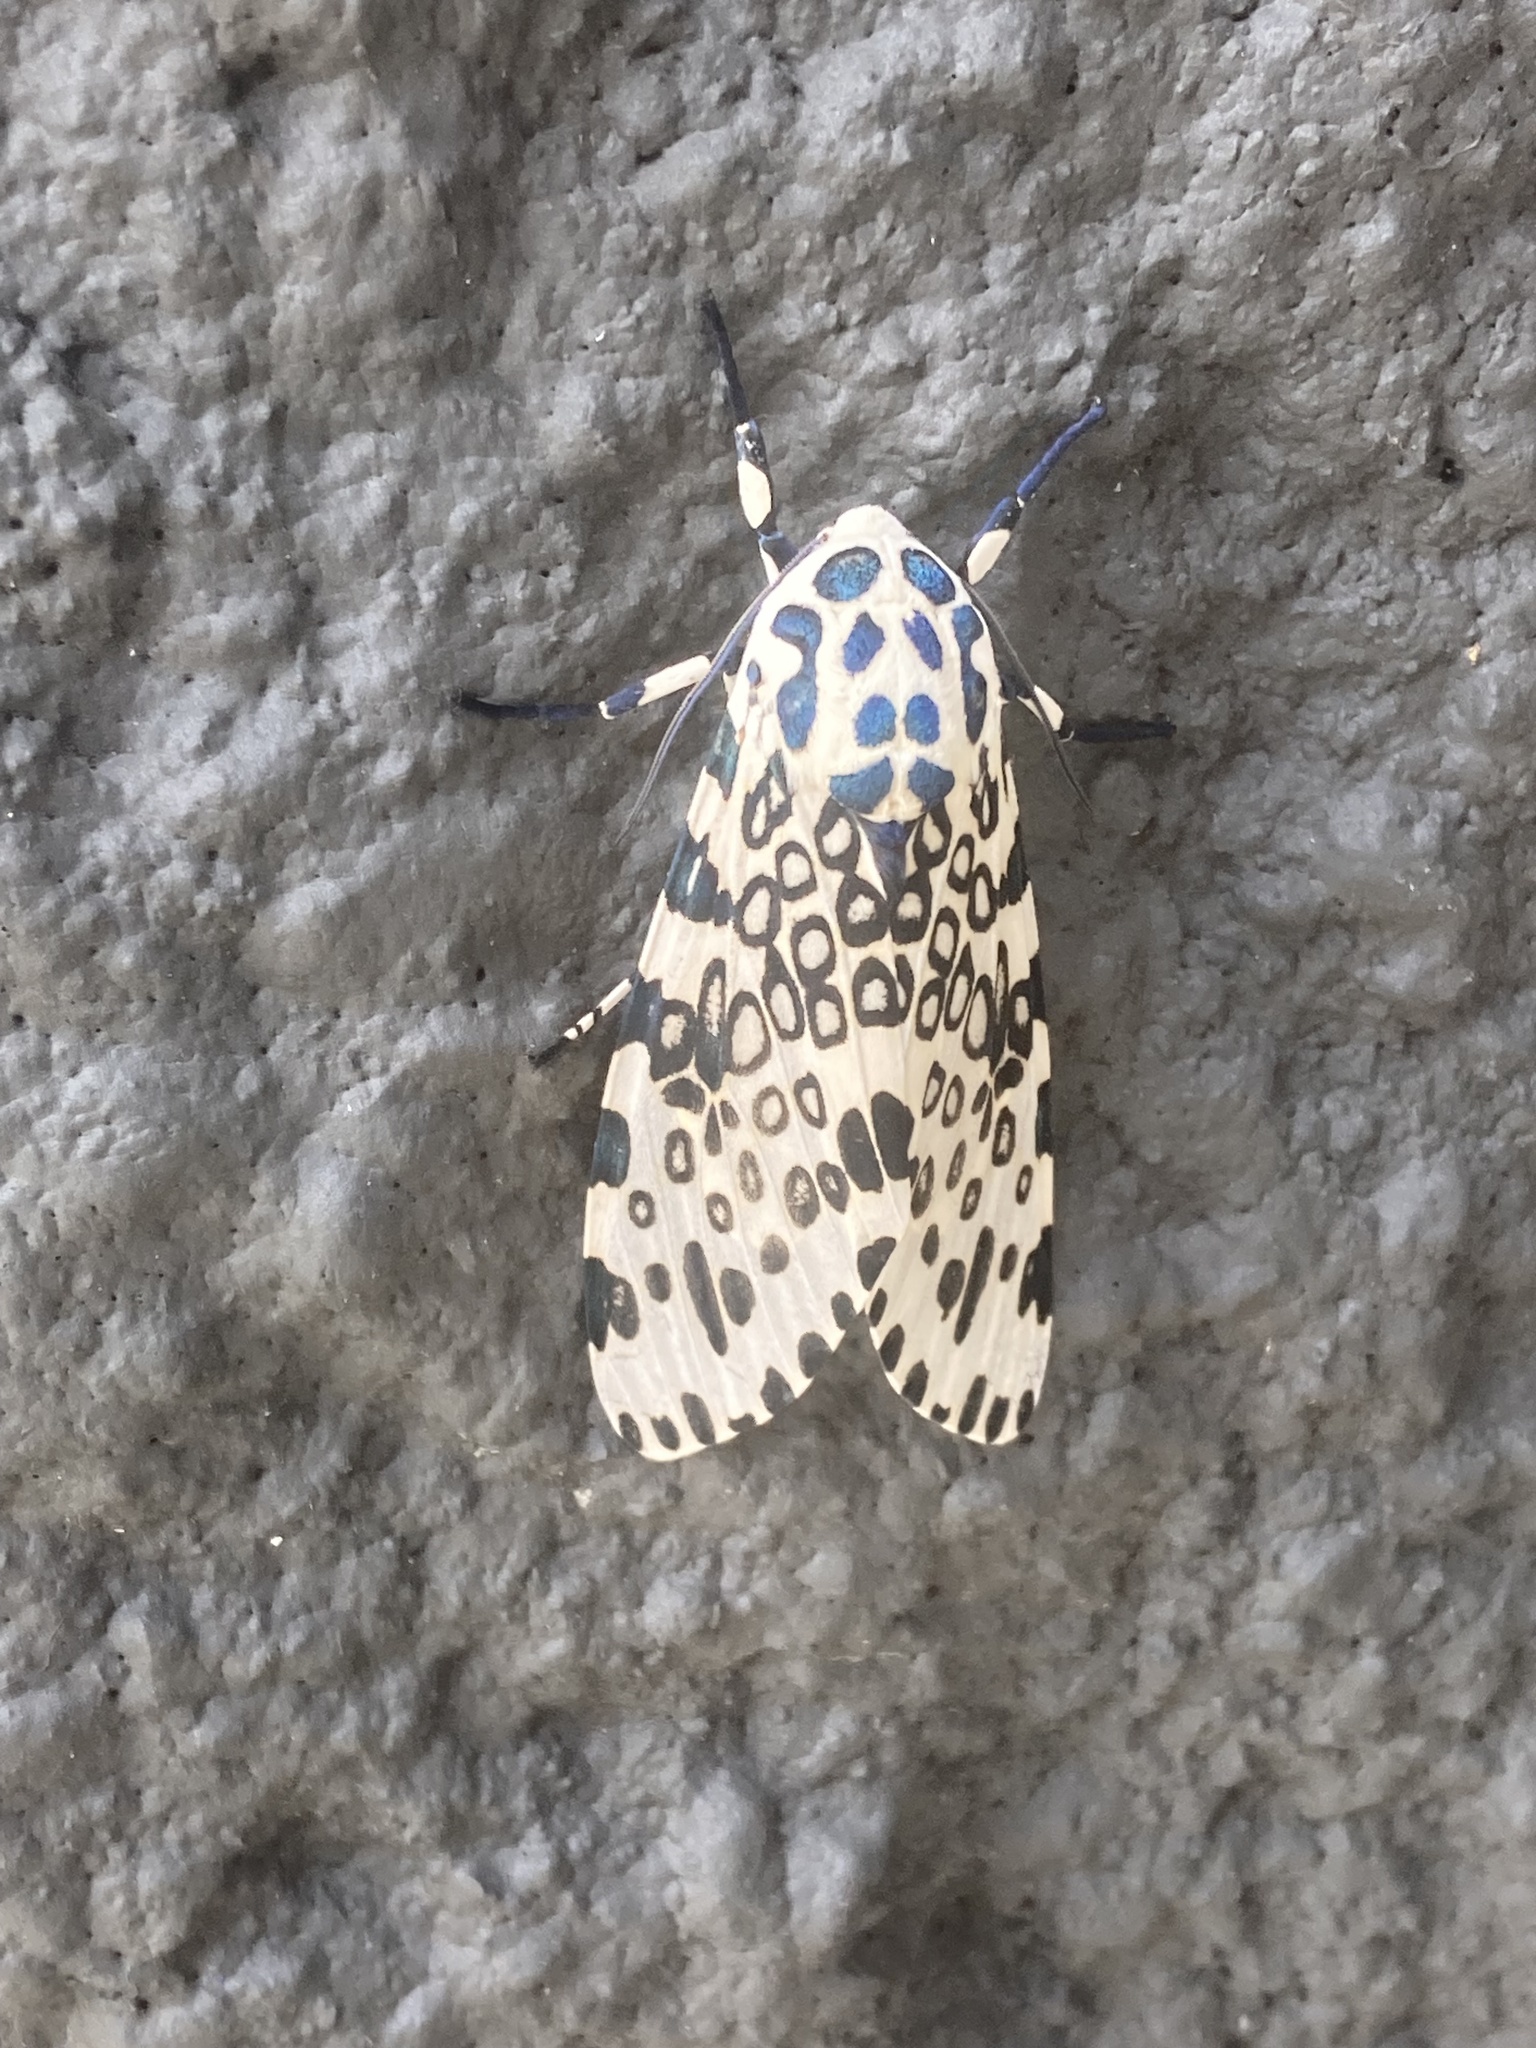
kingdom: Animalia
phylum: Arthropoda
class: Insecta
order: Lepidoptera
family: Erebidae
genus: Hypercompe
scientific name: Hypercompe scribonia
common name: Giant leopard moth
